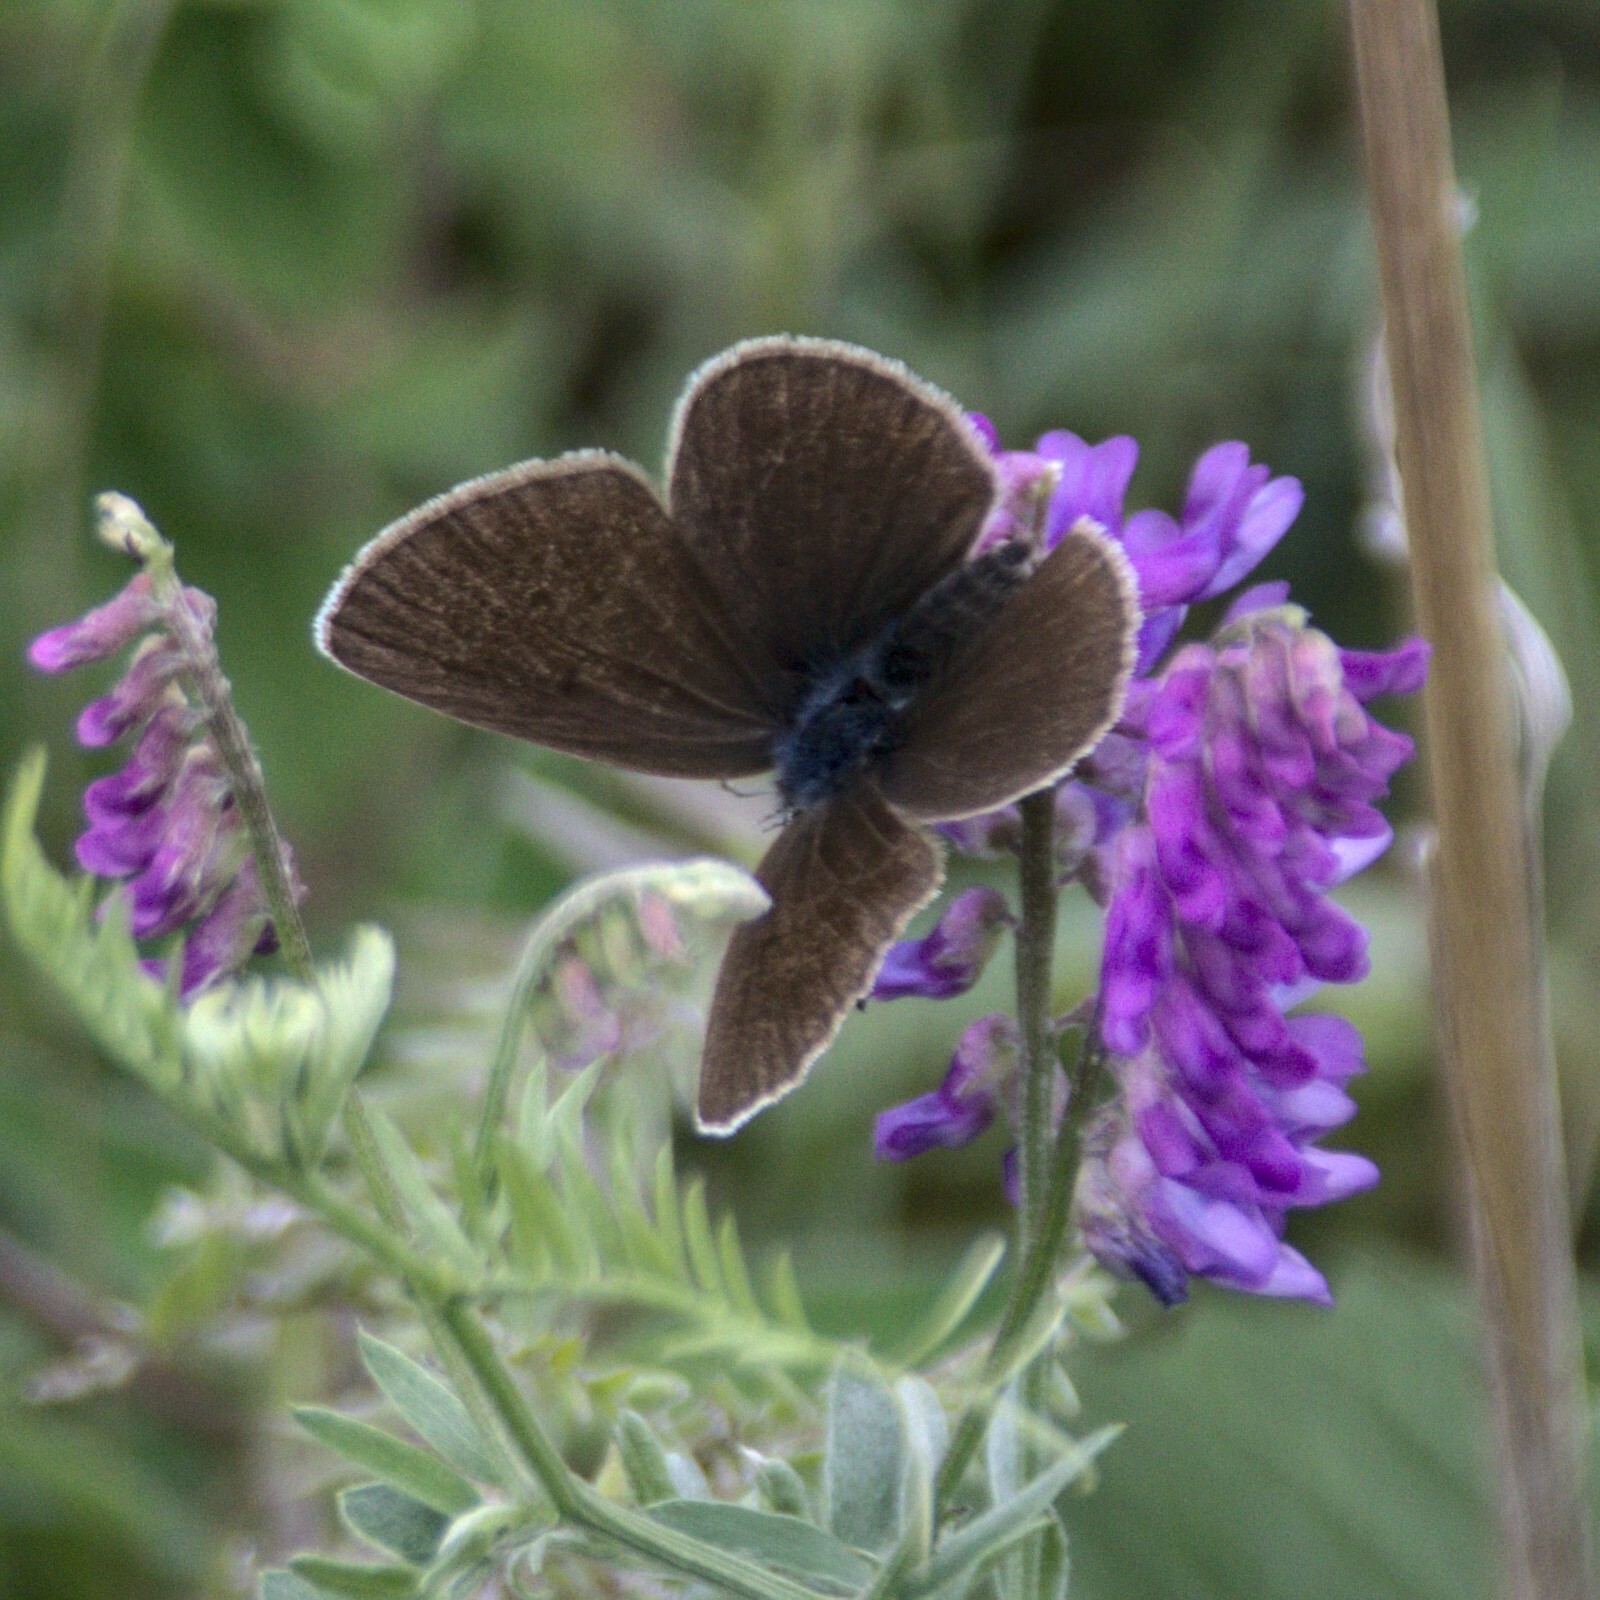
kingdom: Animalia
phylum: Arthropoda
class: Insecta
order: Lepidoptera
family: Lycaenidae
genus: Cyaniris
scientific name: Cyaniris semiargus
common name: Mazarine blue
